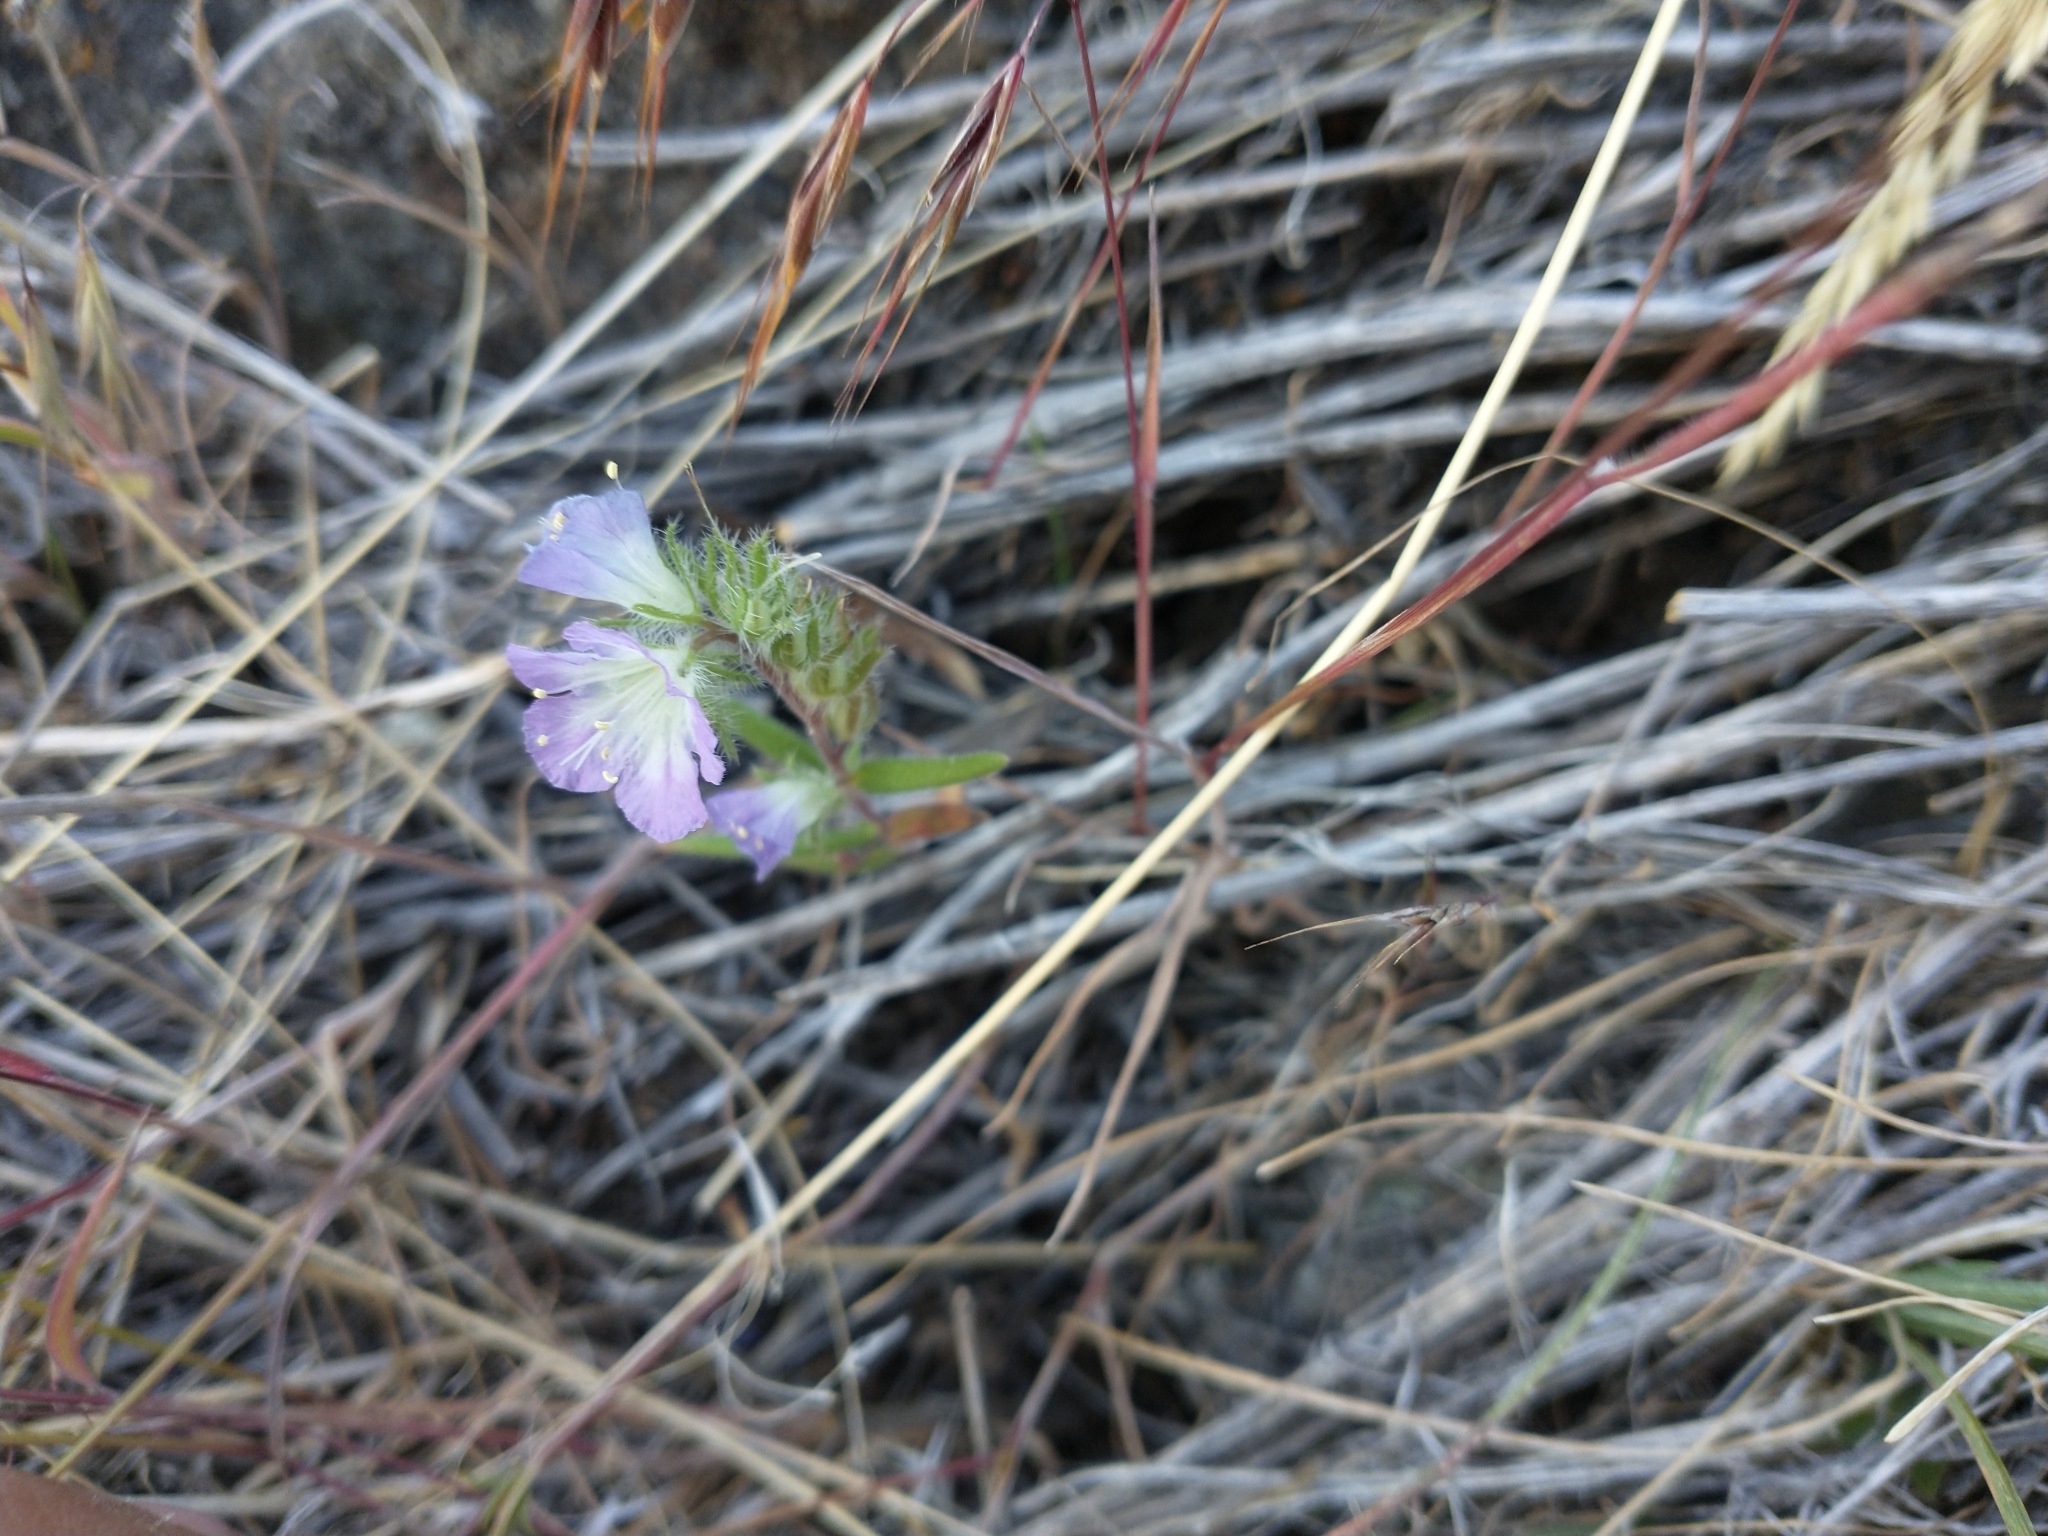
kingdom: Plantae
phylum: Tracheophyta
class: Magnoliopsida
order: Boraginales
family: Hydrophyllaceae
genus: Phacelia
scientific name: Phacelia linearis
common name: Linear-leaved phacelia
